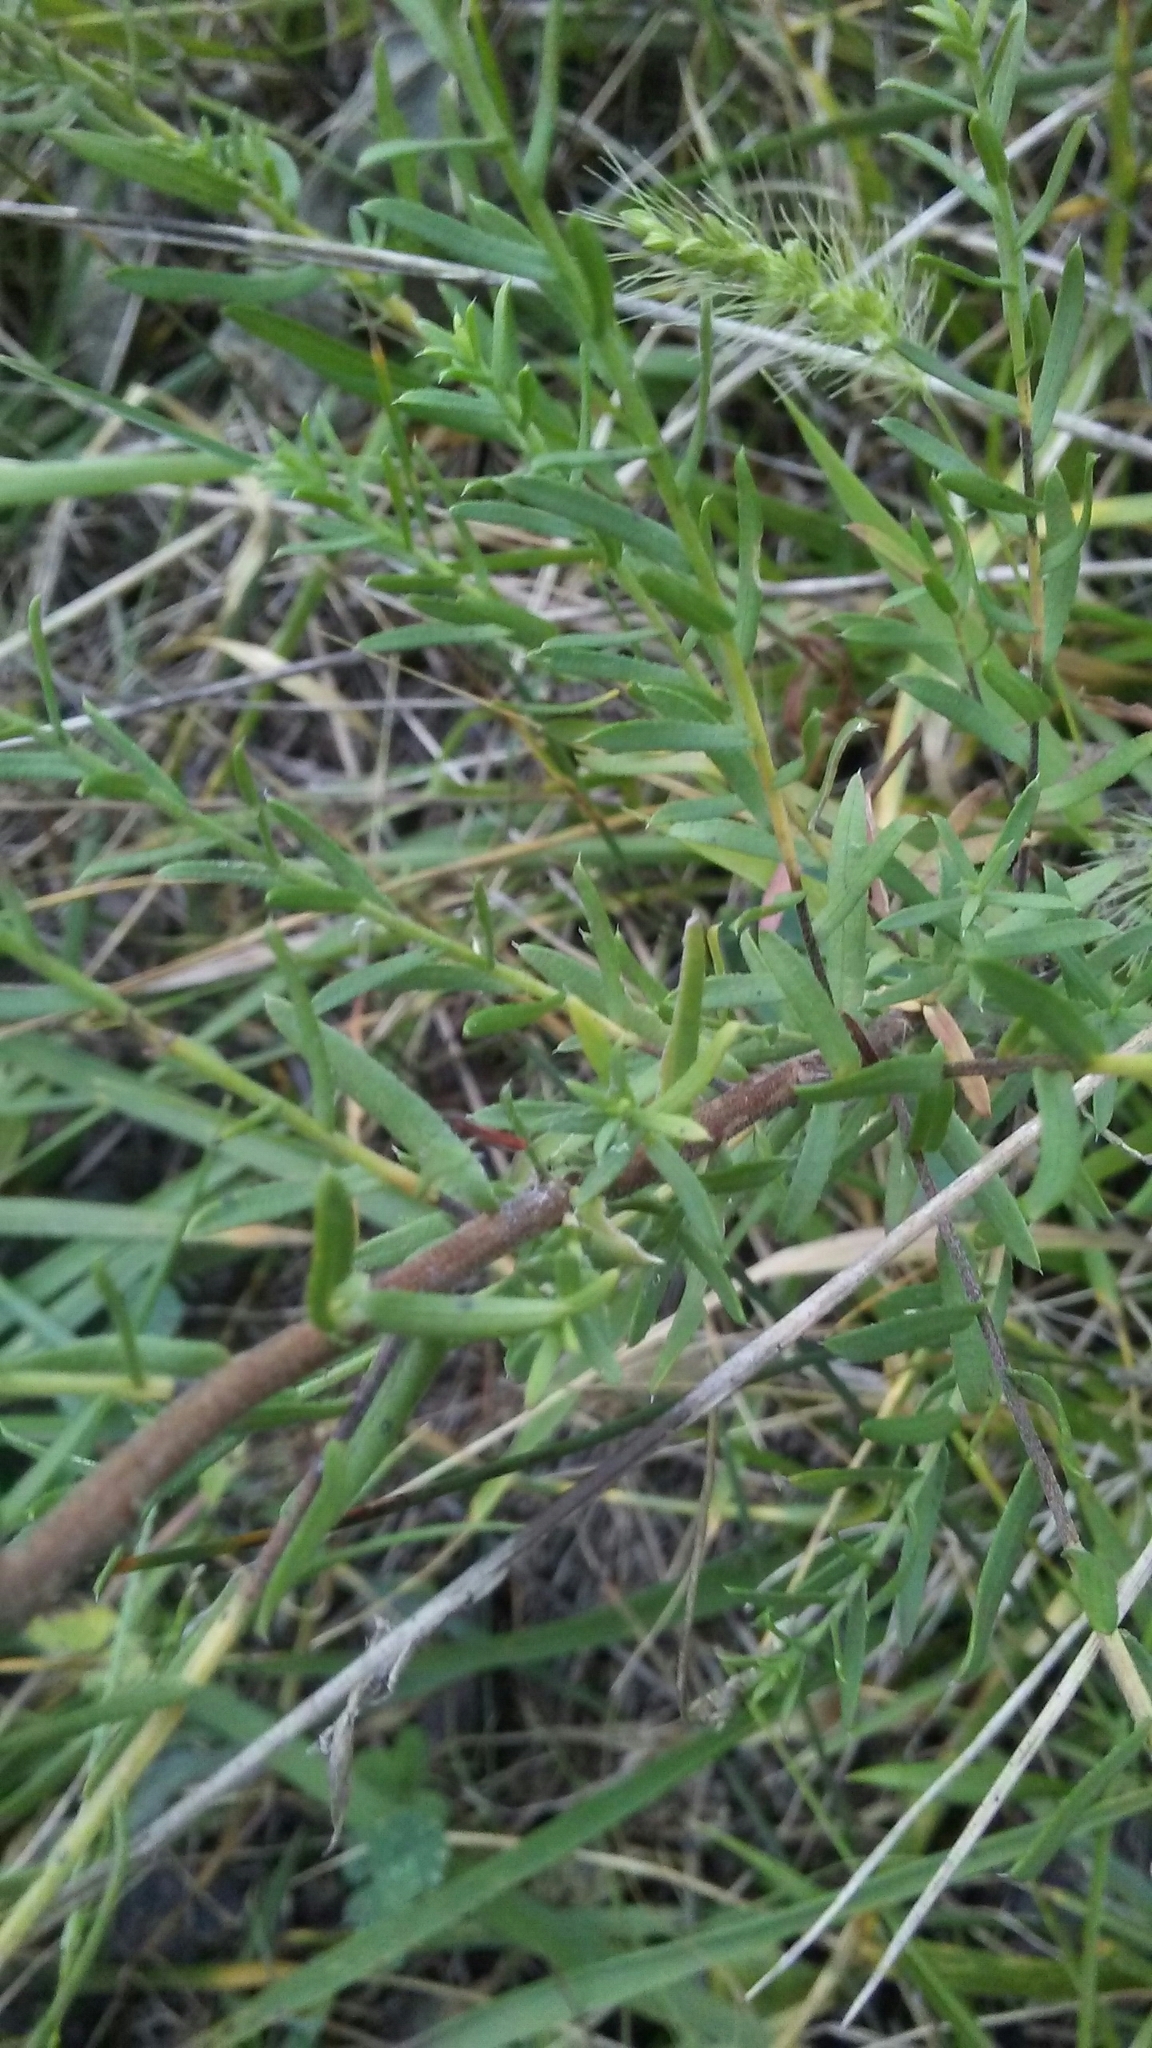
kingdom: Plantae
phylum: Tracheophyta
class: Magnoliopsida
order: Asterales
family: Asteraceae
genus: Symphyotrichum
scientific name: Symphyotrichum ericoides
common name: Heath aster
